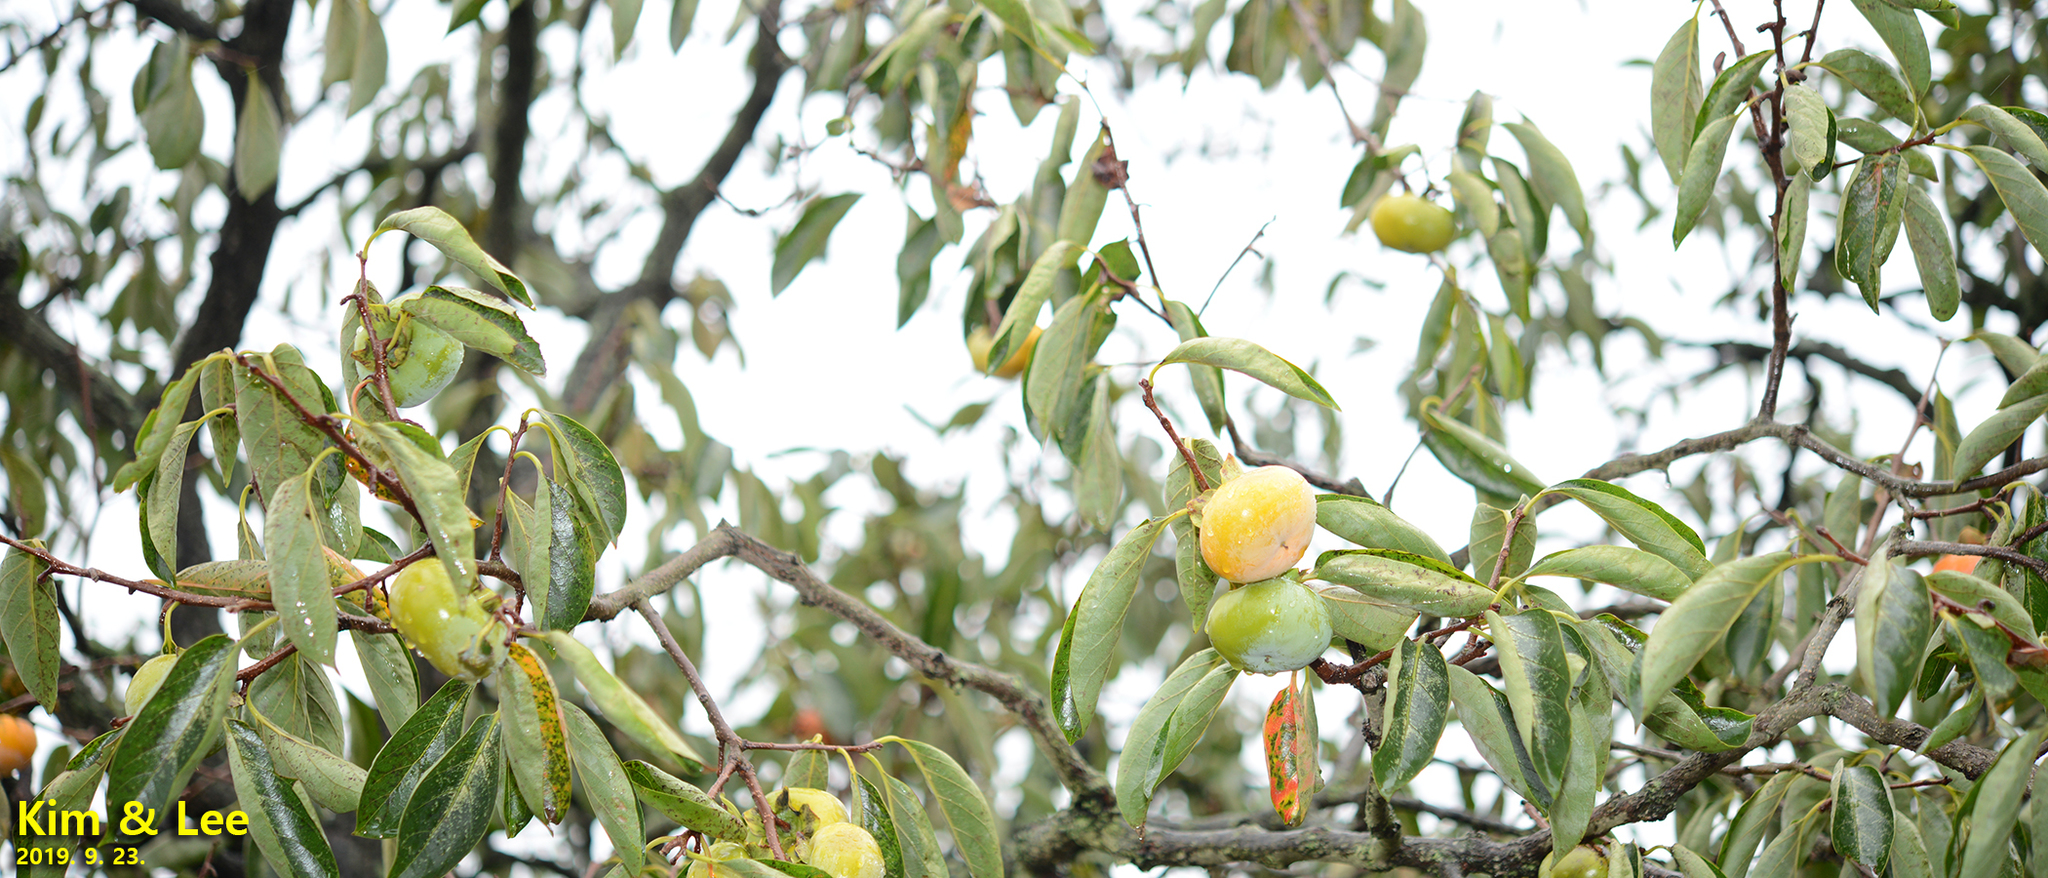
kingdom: Plantae
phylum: Tracheophyta
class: Magnoliopsida
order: Ericales
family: Ebenaceae
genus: Diospyros
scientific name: Diospyros kaki
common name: Persimmon
